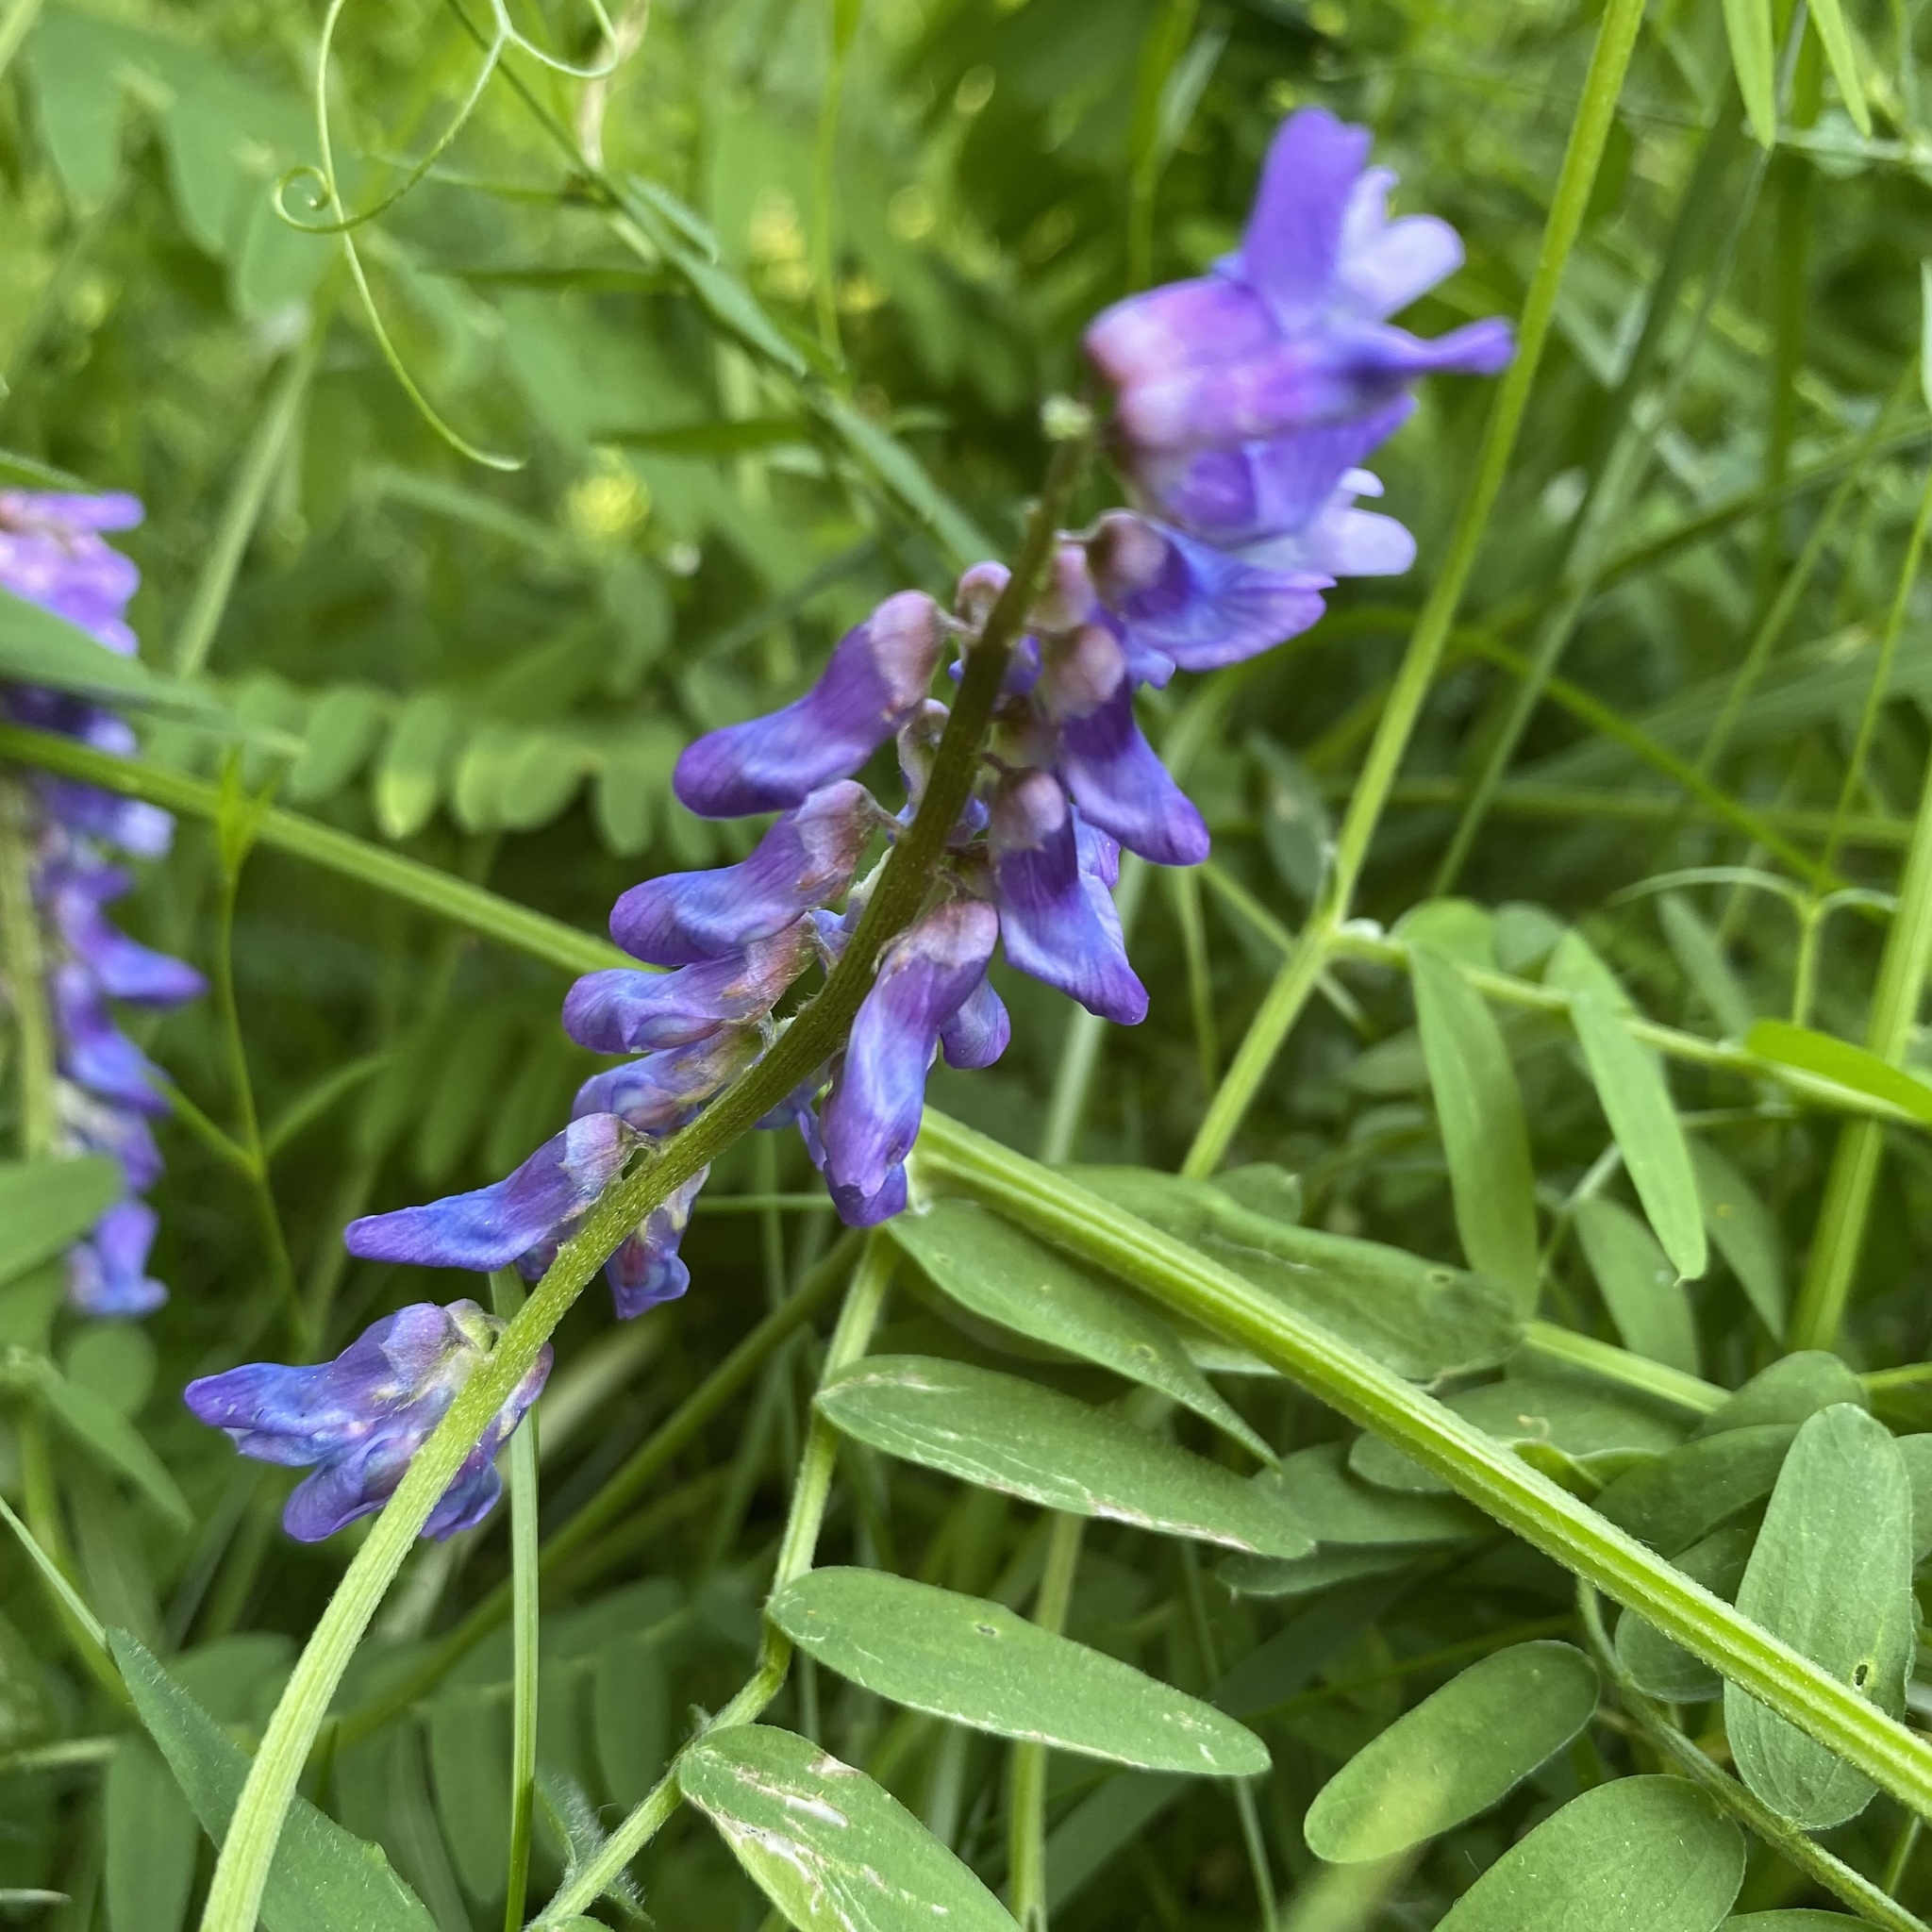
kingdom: Plantae
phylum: Tracheophyta
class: Magnoliopsida
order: Fabales
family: Fabaceae
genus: Vicia
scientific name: Vicia cracca
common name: Bird vetch
